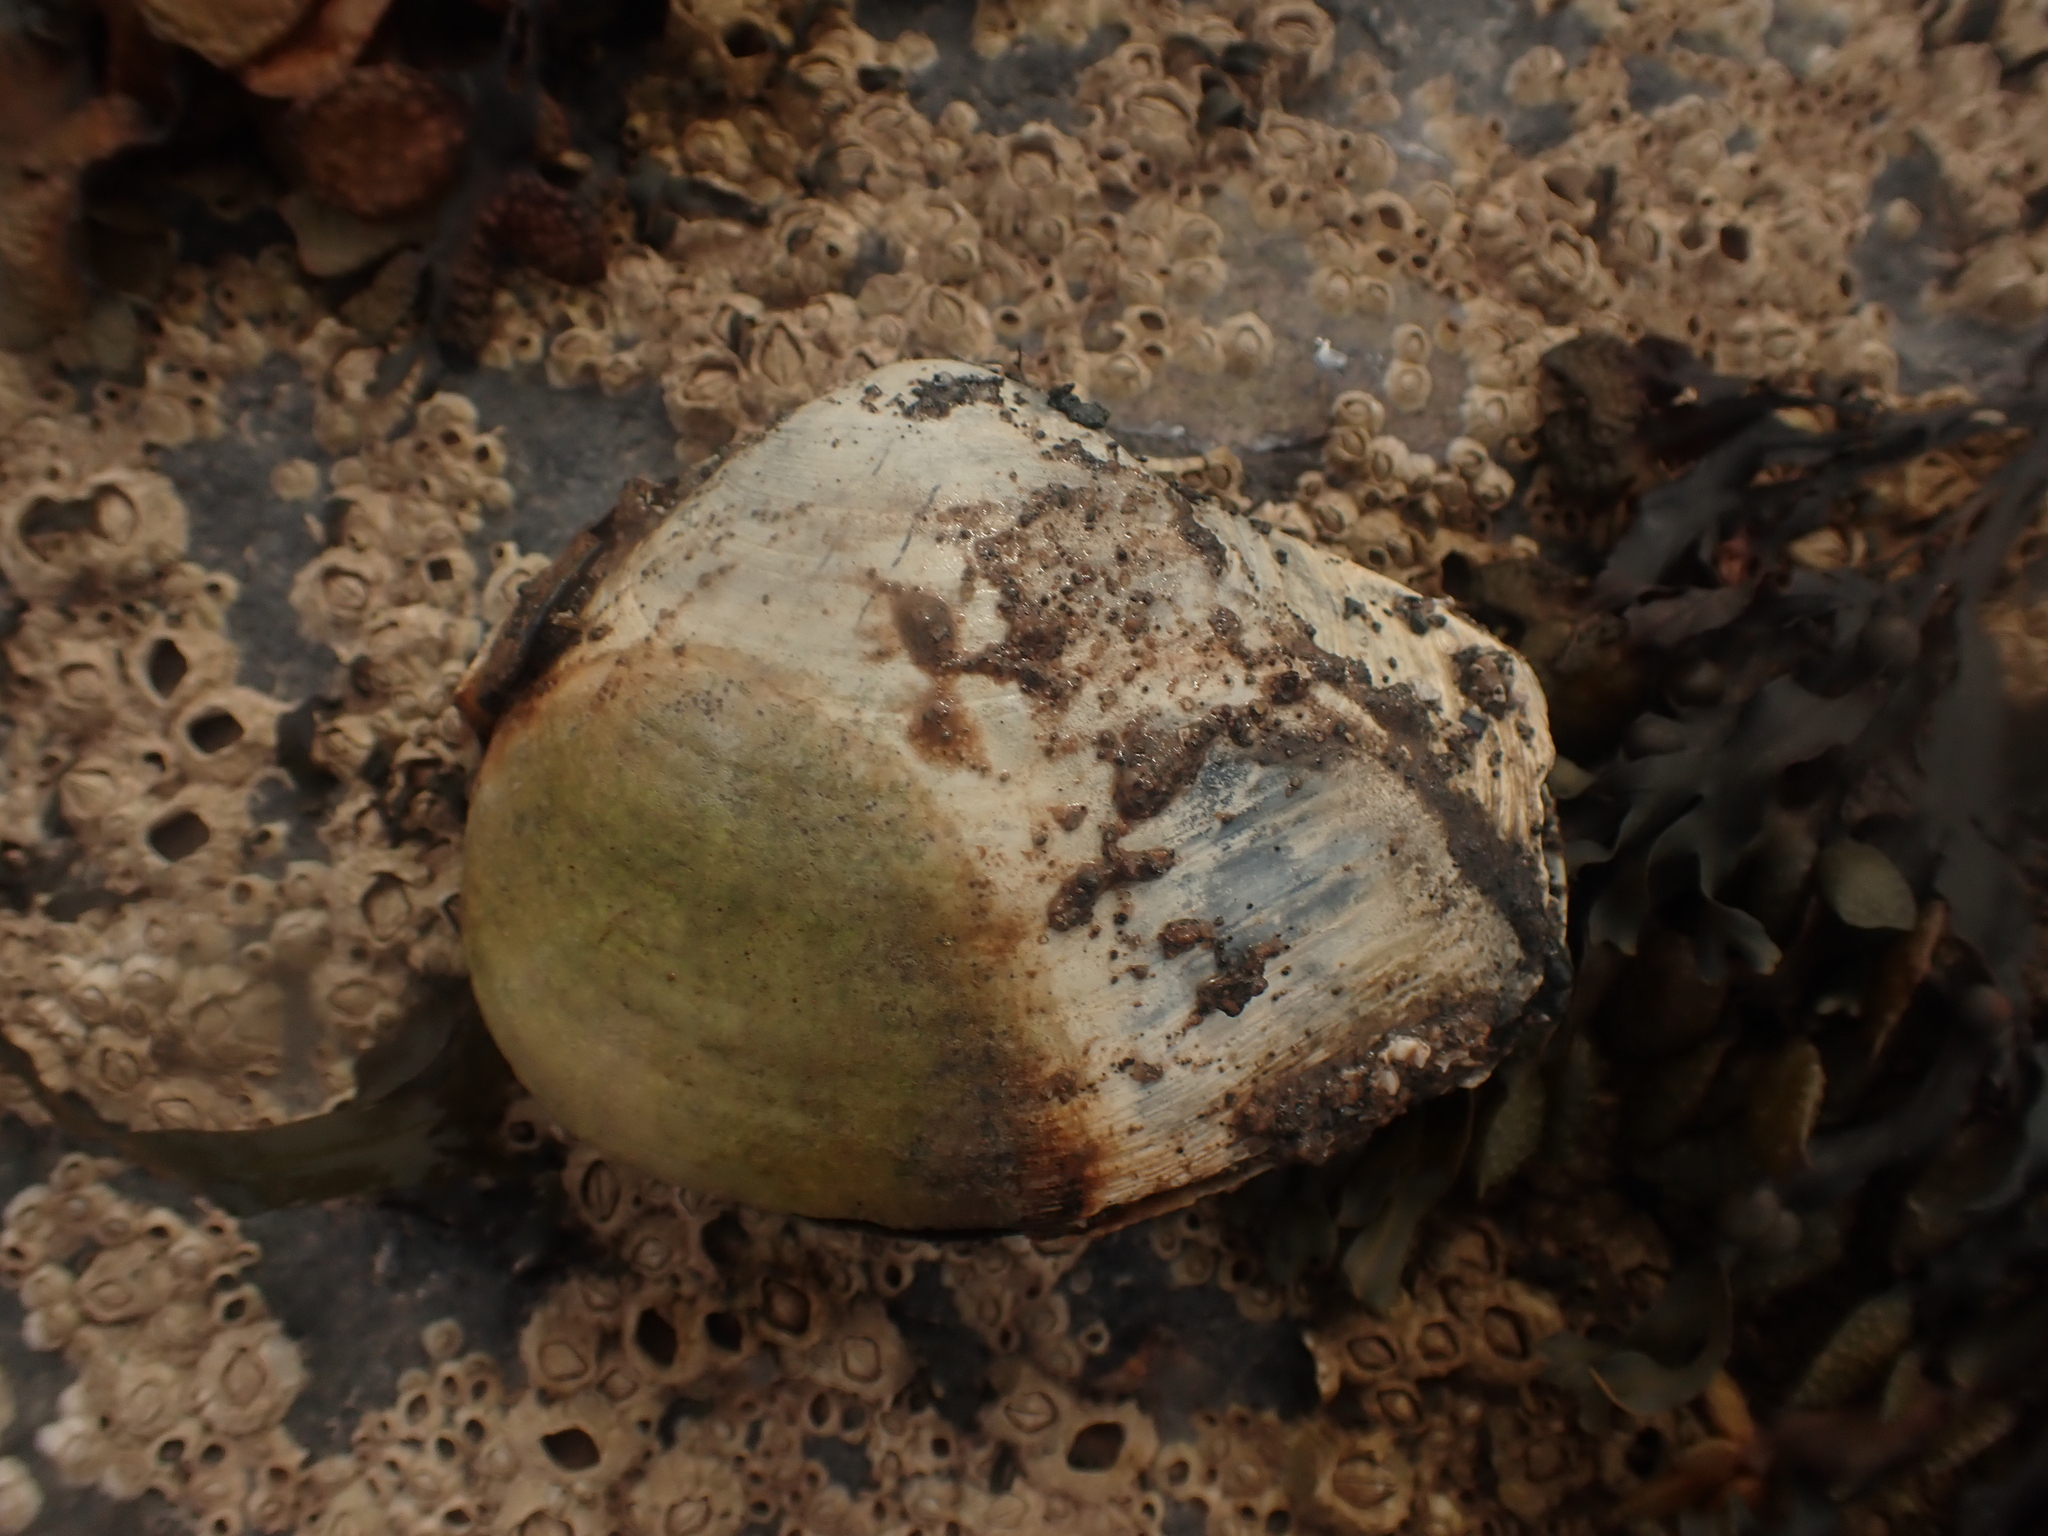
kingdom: Animalia
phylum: Mollusca
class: Bivalvia
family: Thraciidae
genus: Thracia
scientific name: Thracia conradi
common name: Conrad thracia
